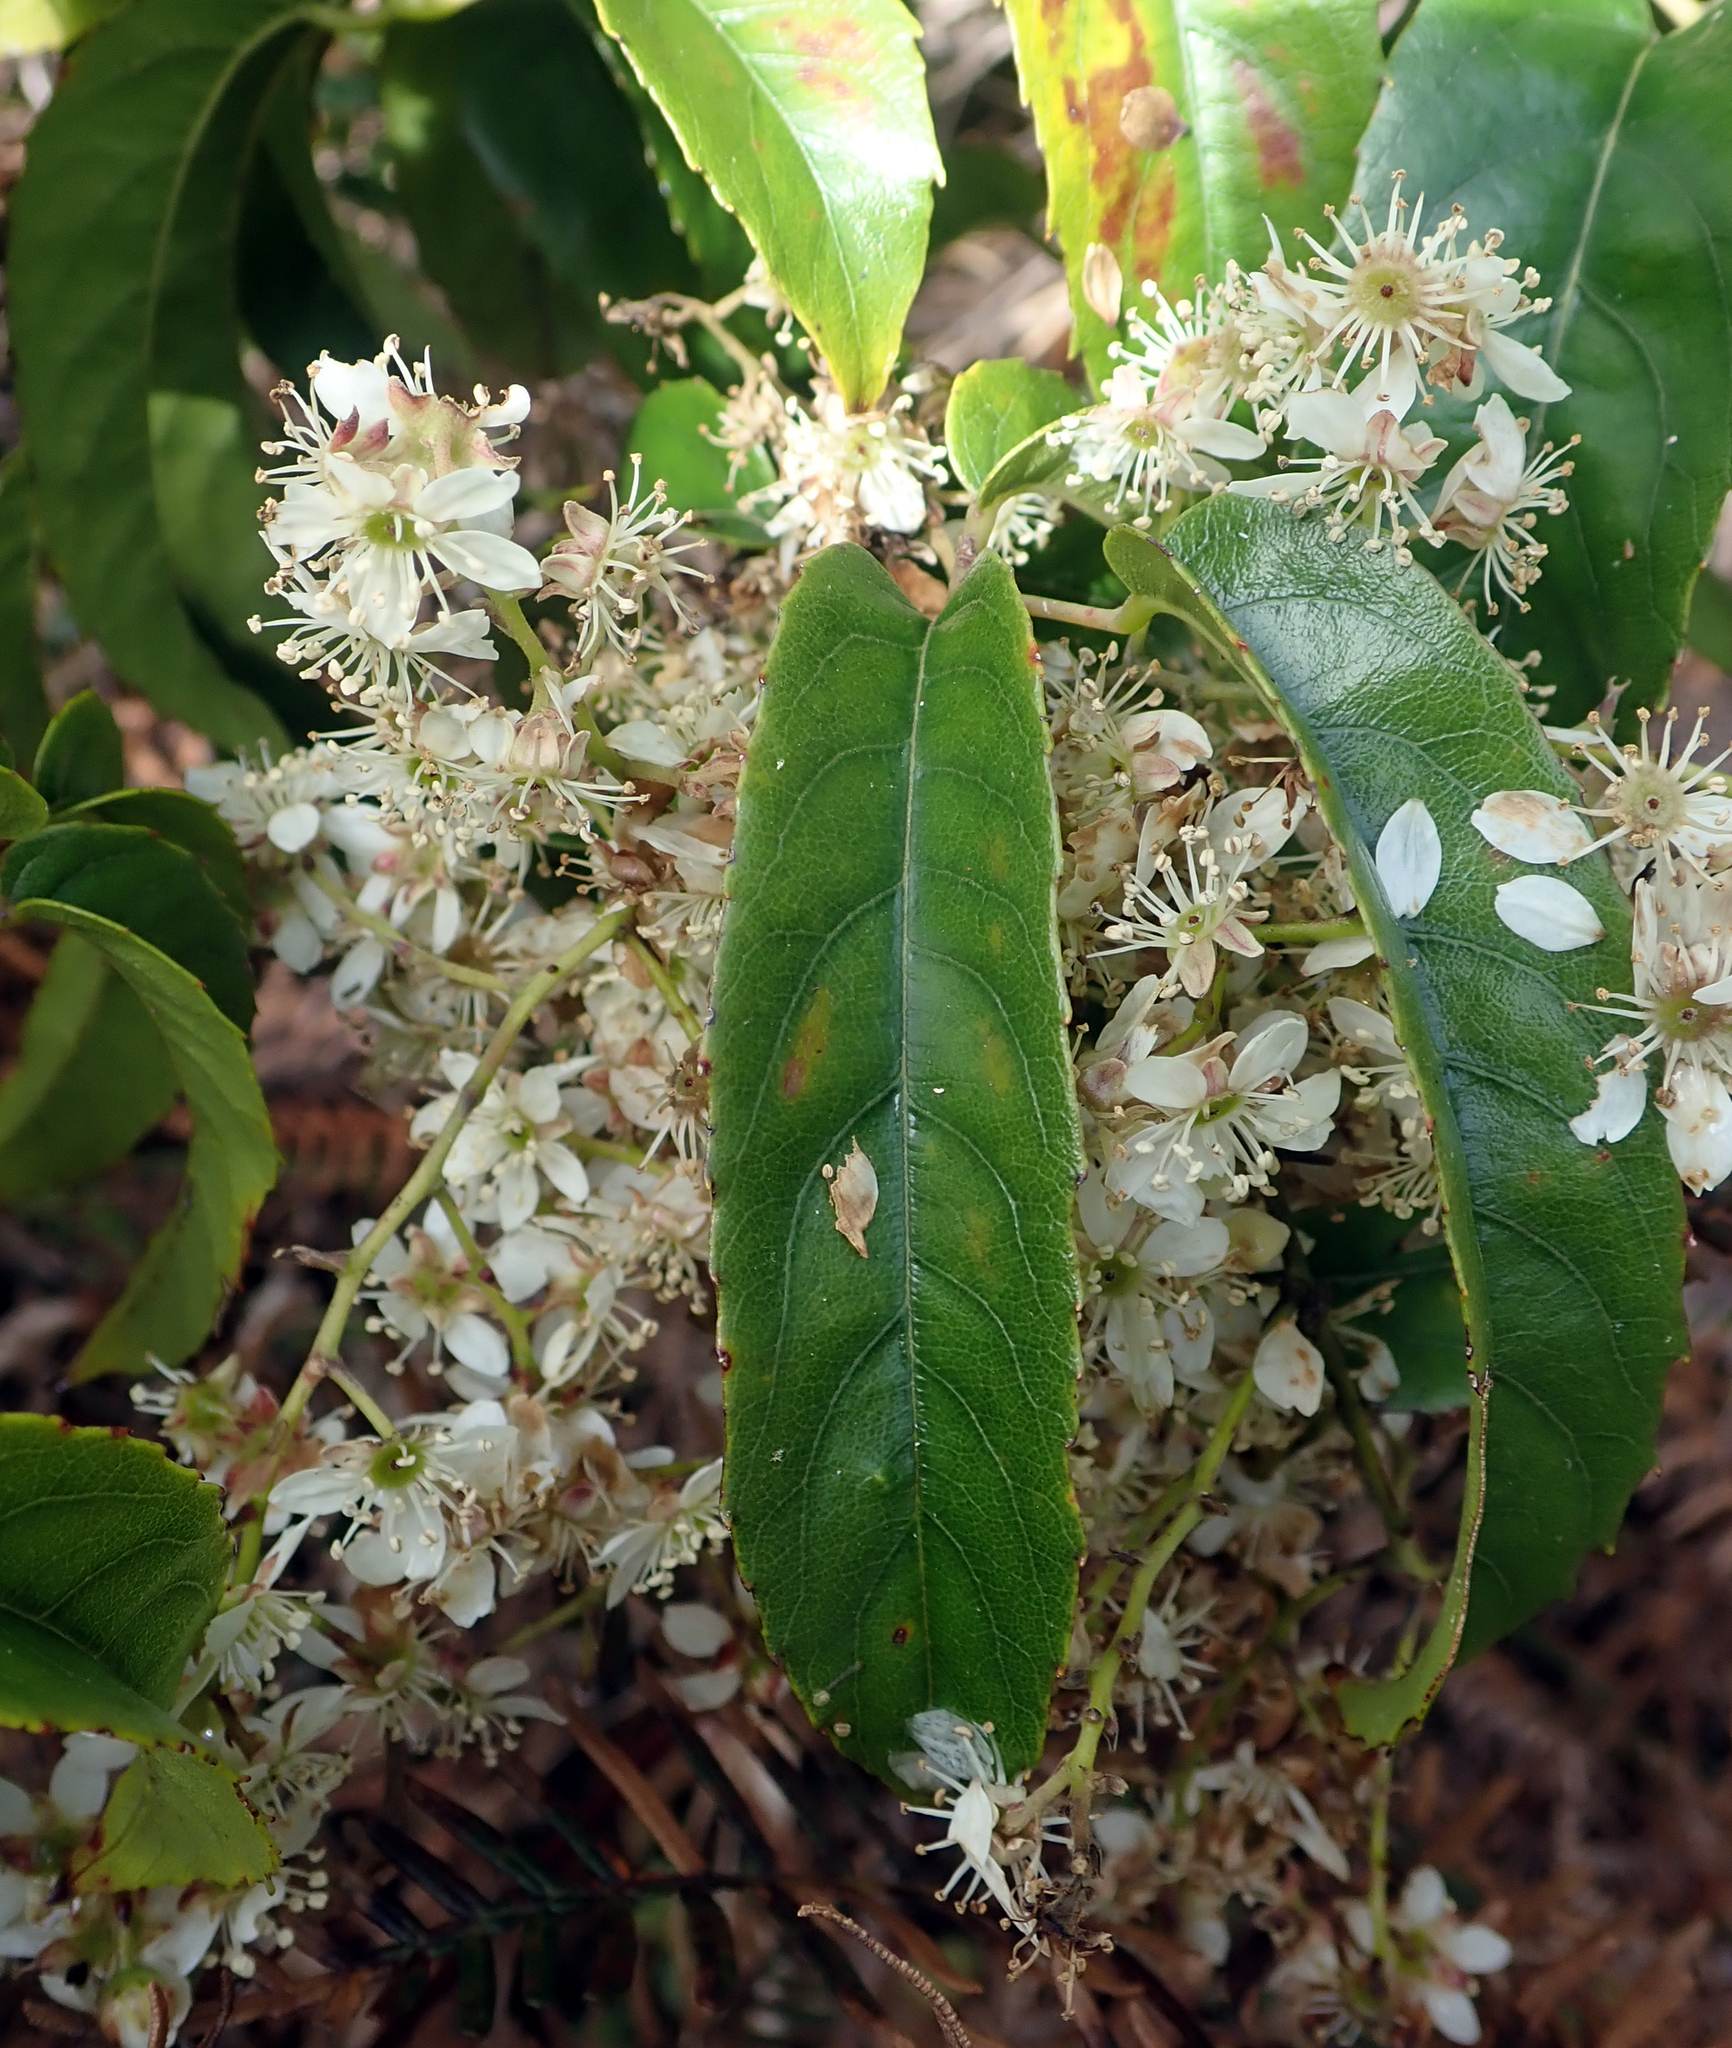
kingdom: Plantae
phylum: Tracheophyta
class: Magnoliopsida
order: Rosales
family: Rosaceae
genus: Rubus
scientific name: Rubus cissoides
